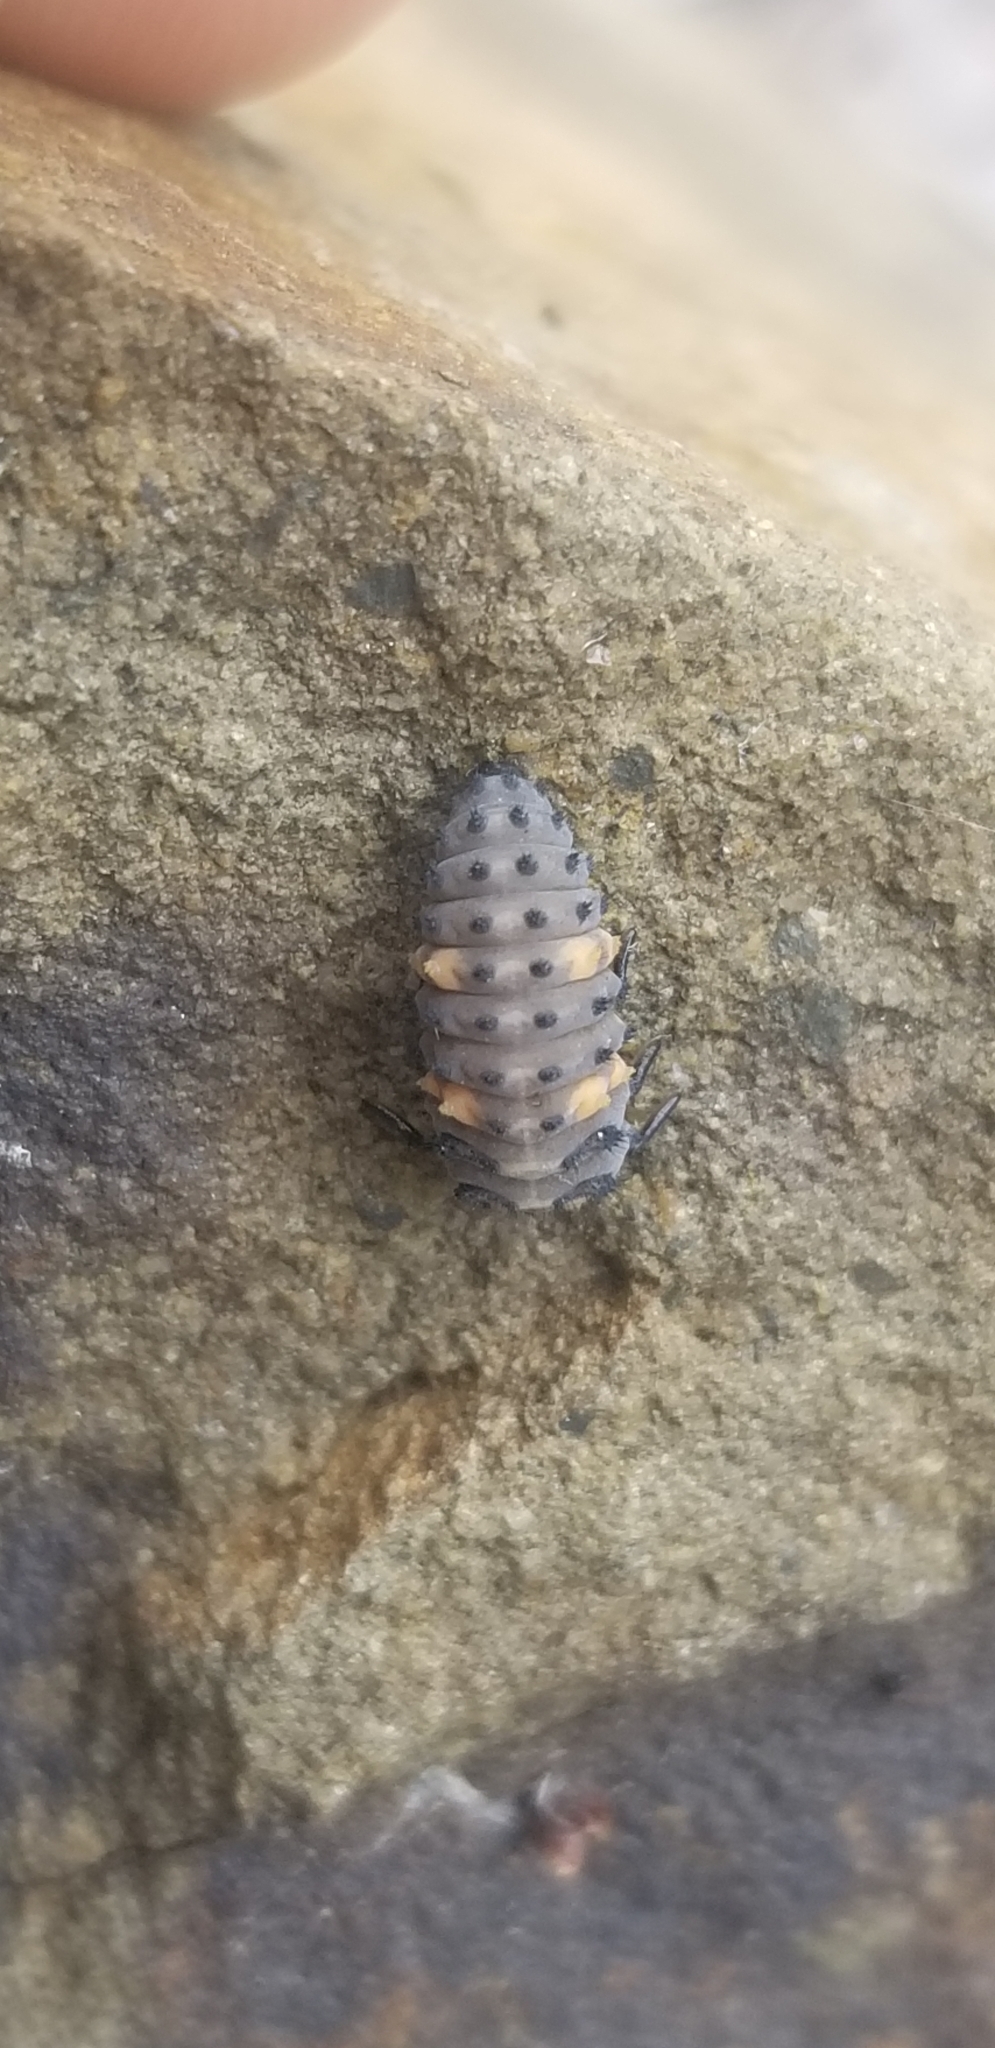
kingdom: Animalia
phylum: Arthropoda
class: Insecta
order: Coleoptera
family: Coccinellidae
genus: Coccinella
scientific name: Coccinella septempunctata
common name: Sevenspotted lady beetle
